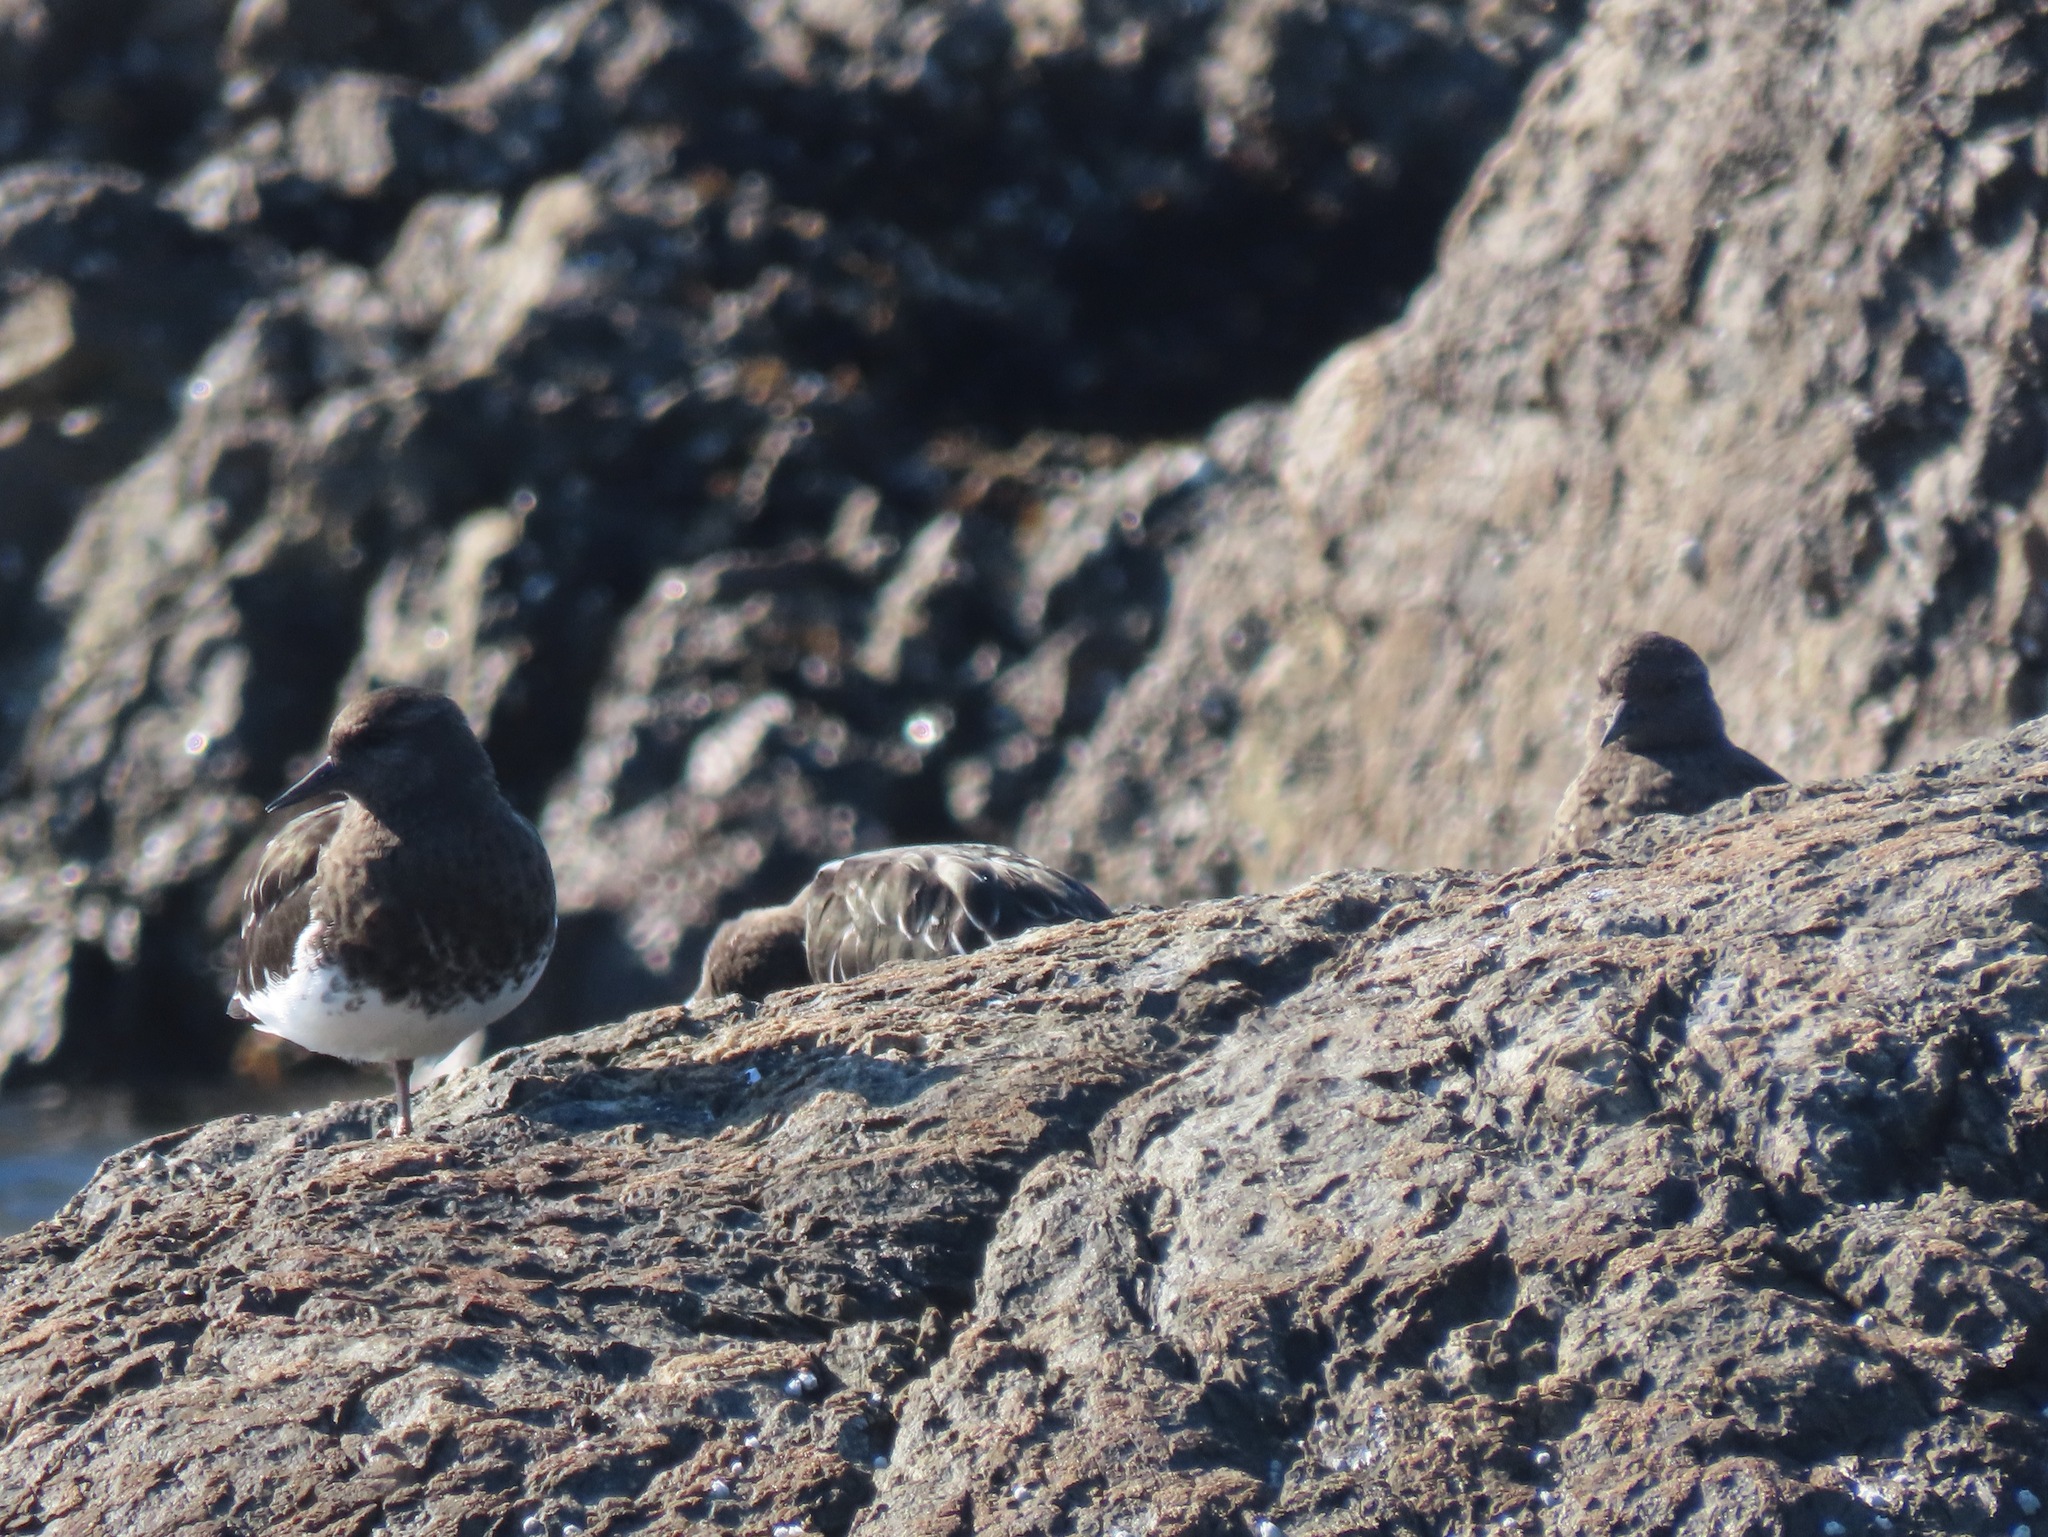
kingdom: Animalia
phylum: Chordata
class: Aves
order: Charadriiformes
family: Scolopacidae
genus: Arenaria
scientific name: Arenaria melanocephala
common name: Black turnstone
